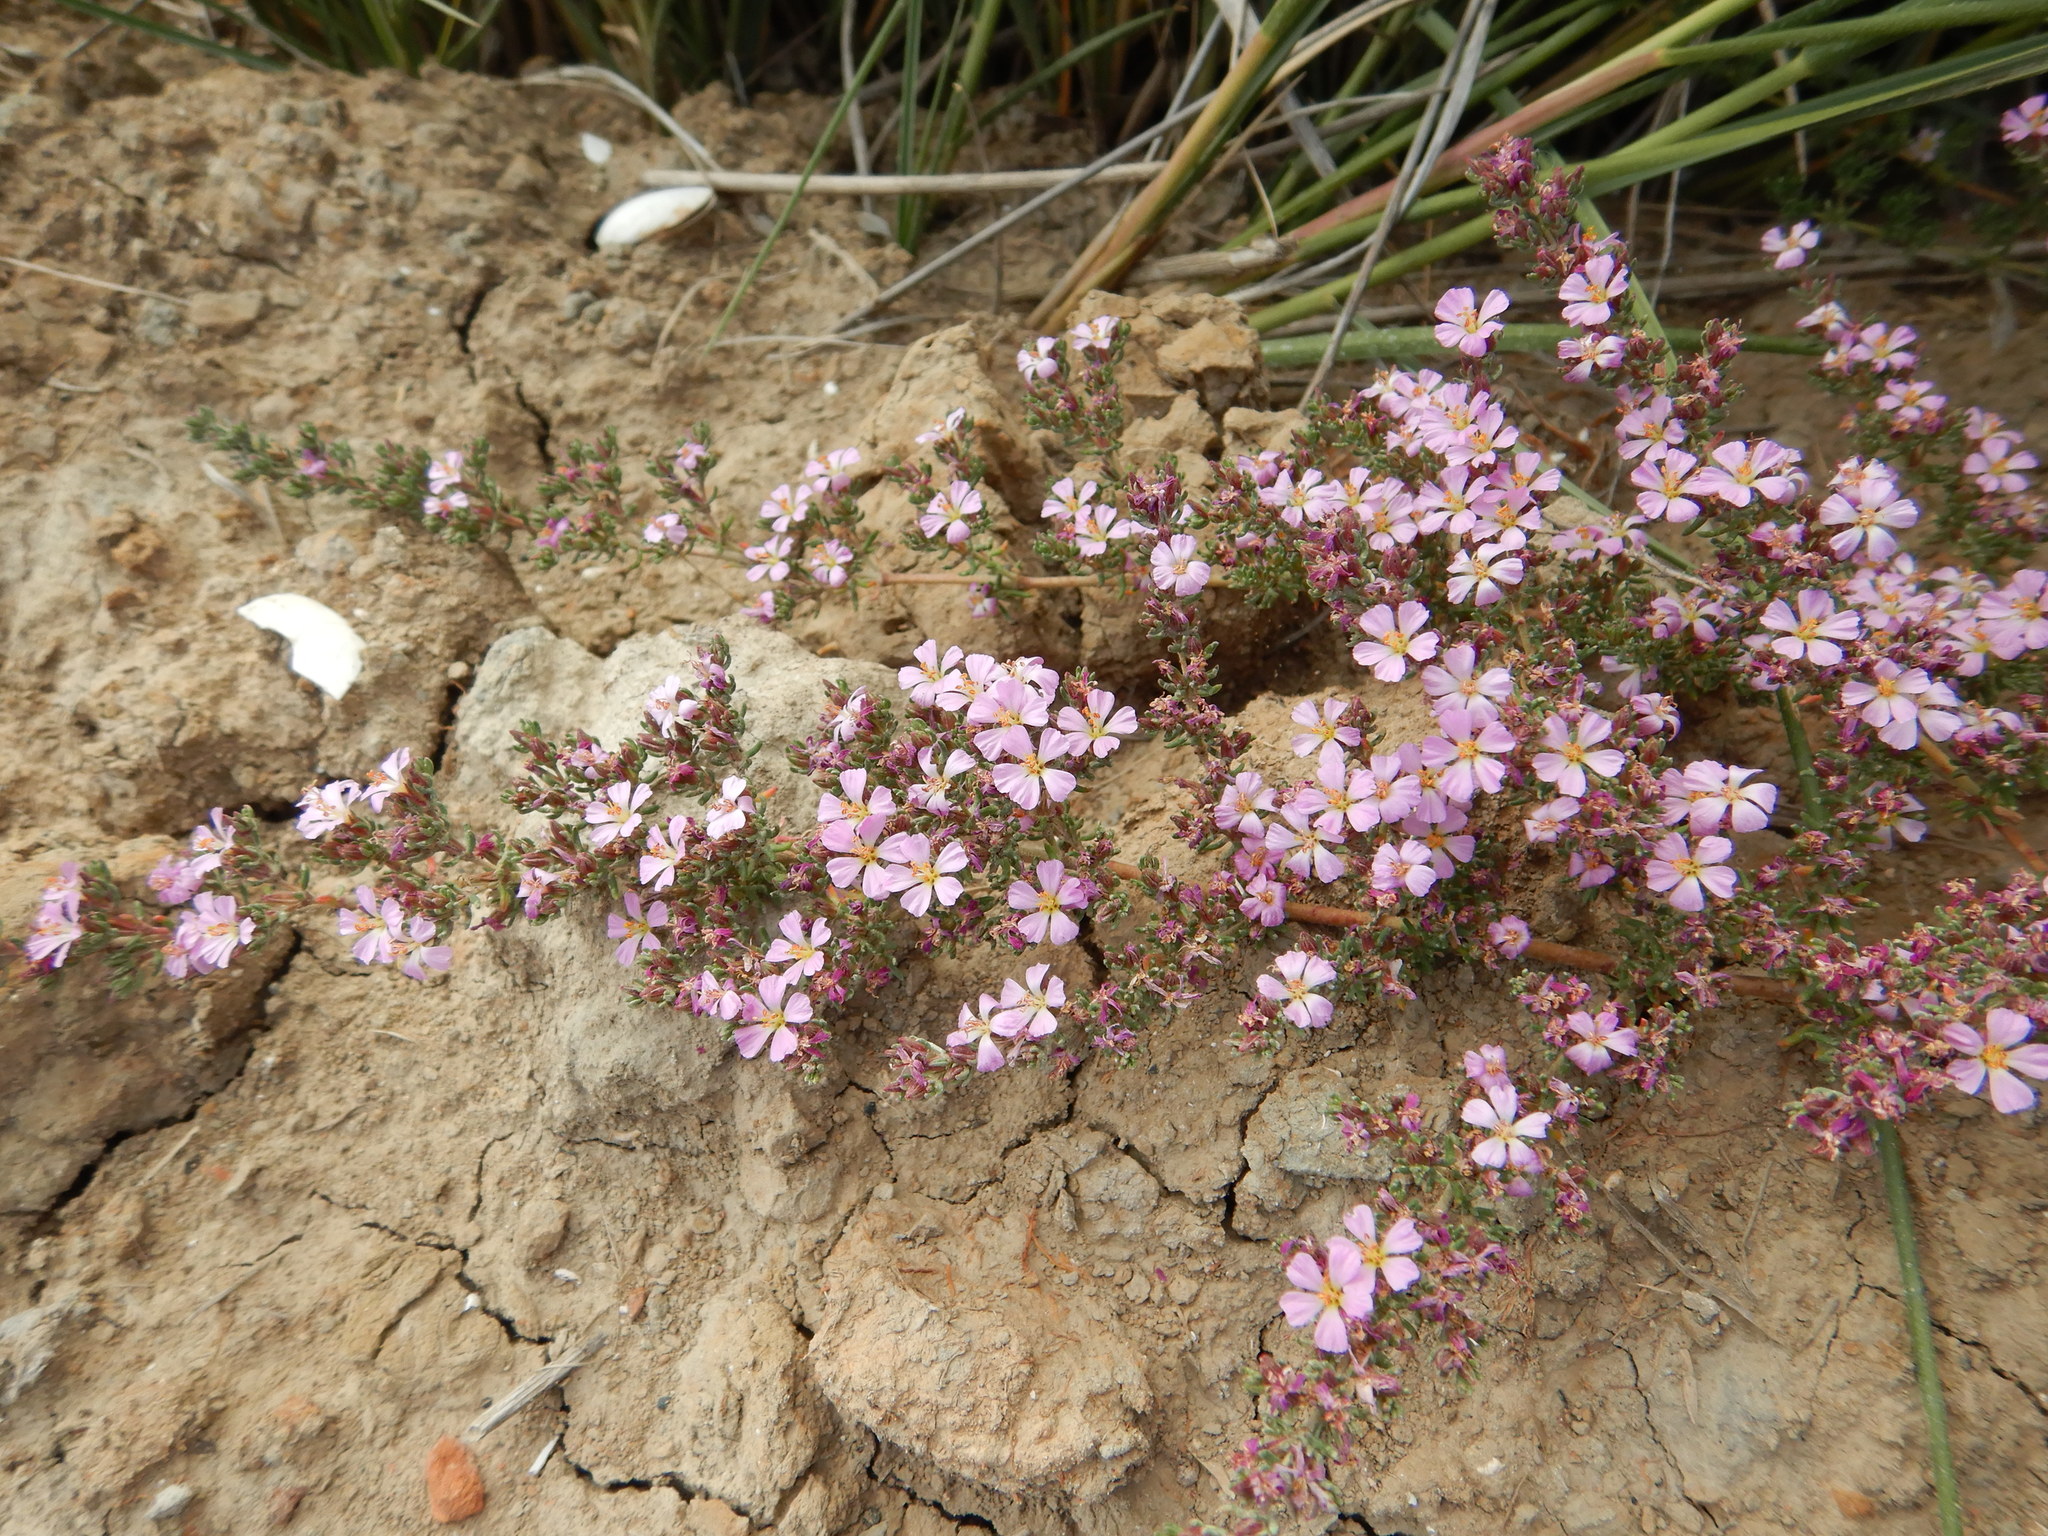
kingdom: Plantae
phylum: Tracheophyta
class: Magnoliopsida
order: Caryophyllales
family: Frankeniaceae
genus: Frankenia
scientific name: Frankenia laevis
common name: Sea-heath
